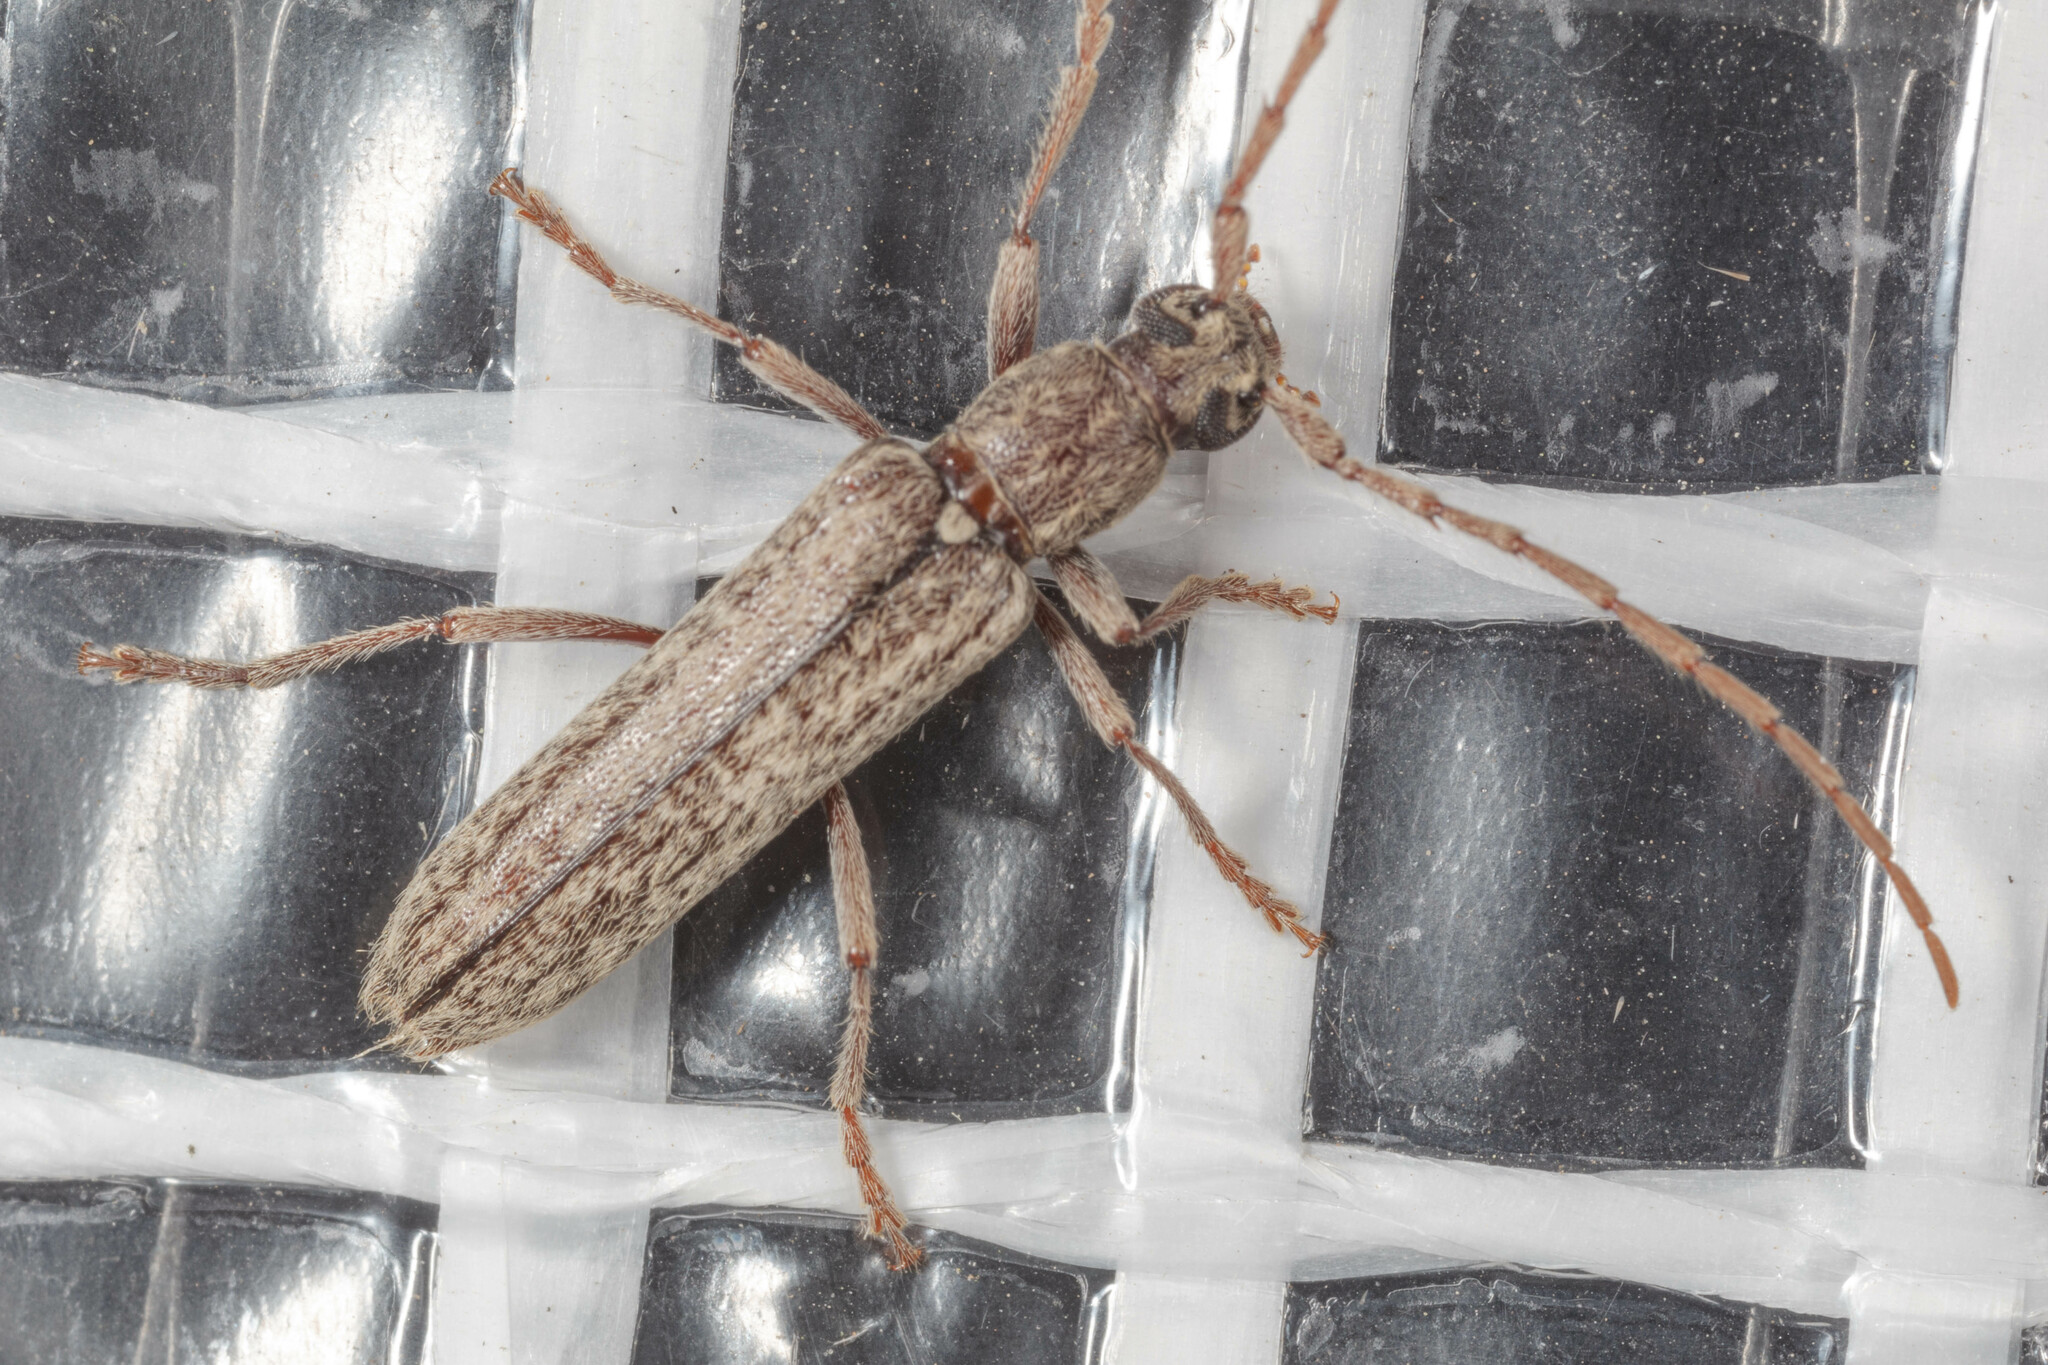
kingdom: Animalia
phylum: Arthropoda
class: Insecta
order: Coleoptera
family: Cerambycidae
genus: Anelaphus
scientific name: Anelaphus villosus
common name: Twig pruner
